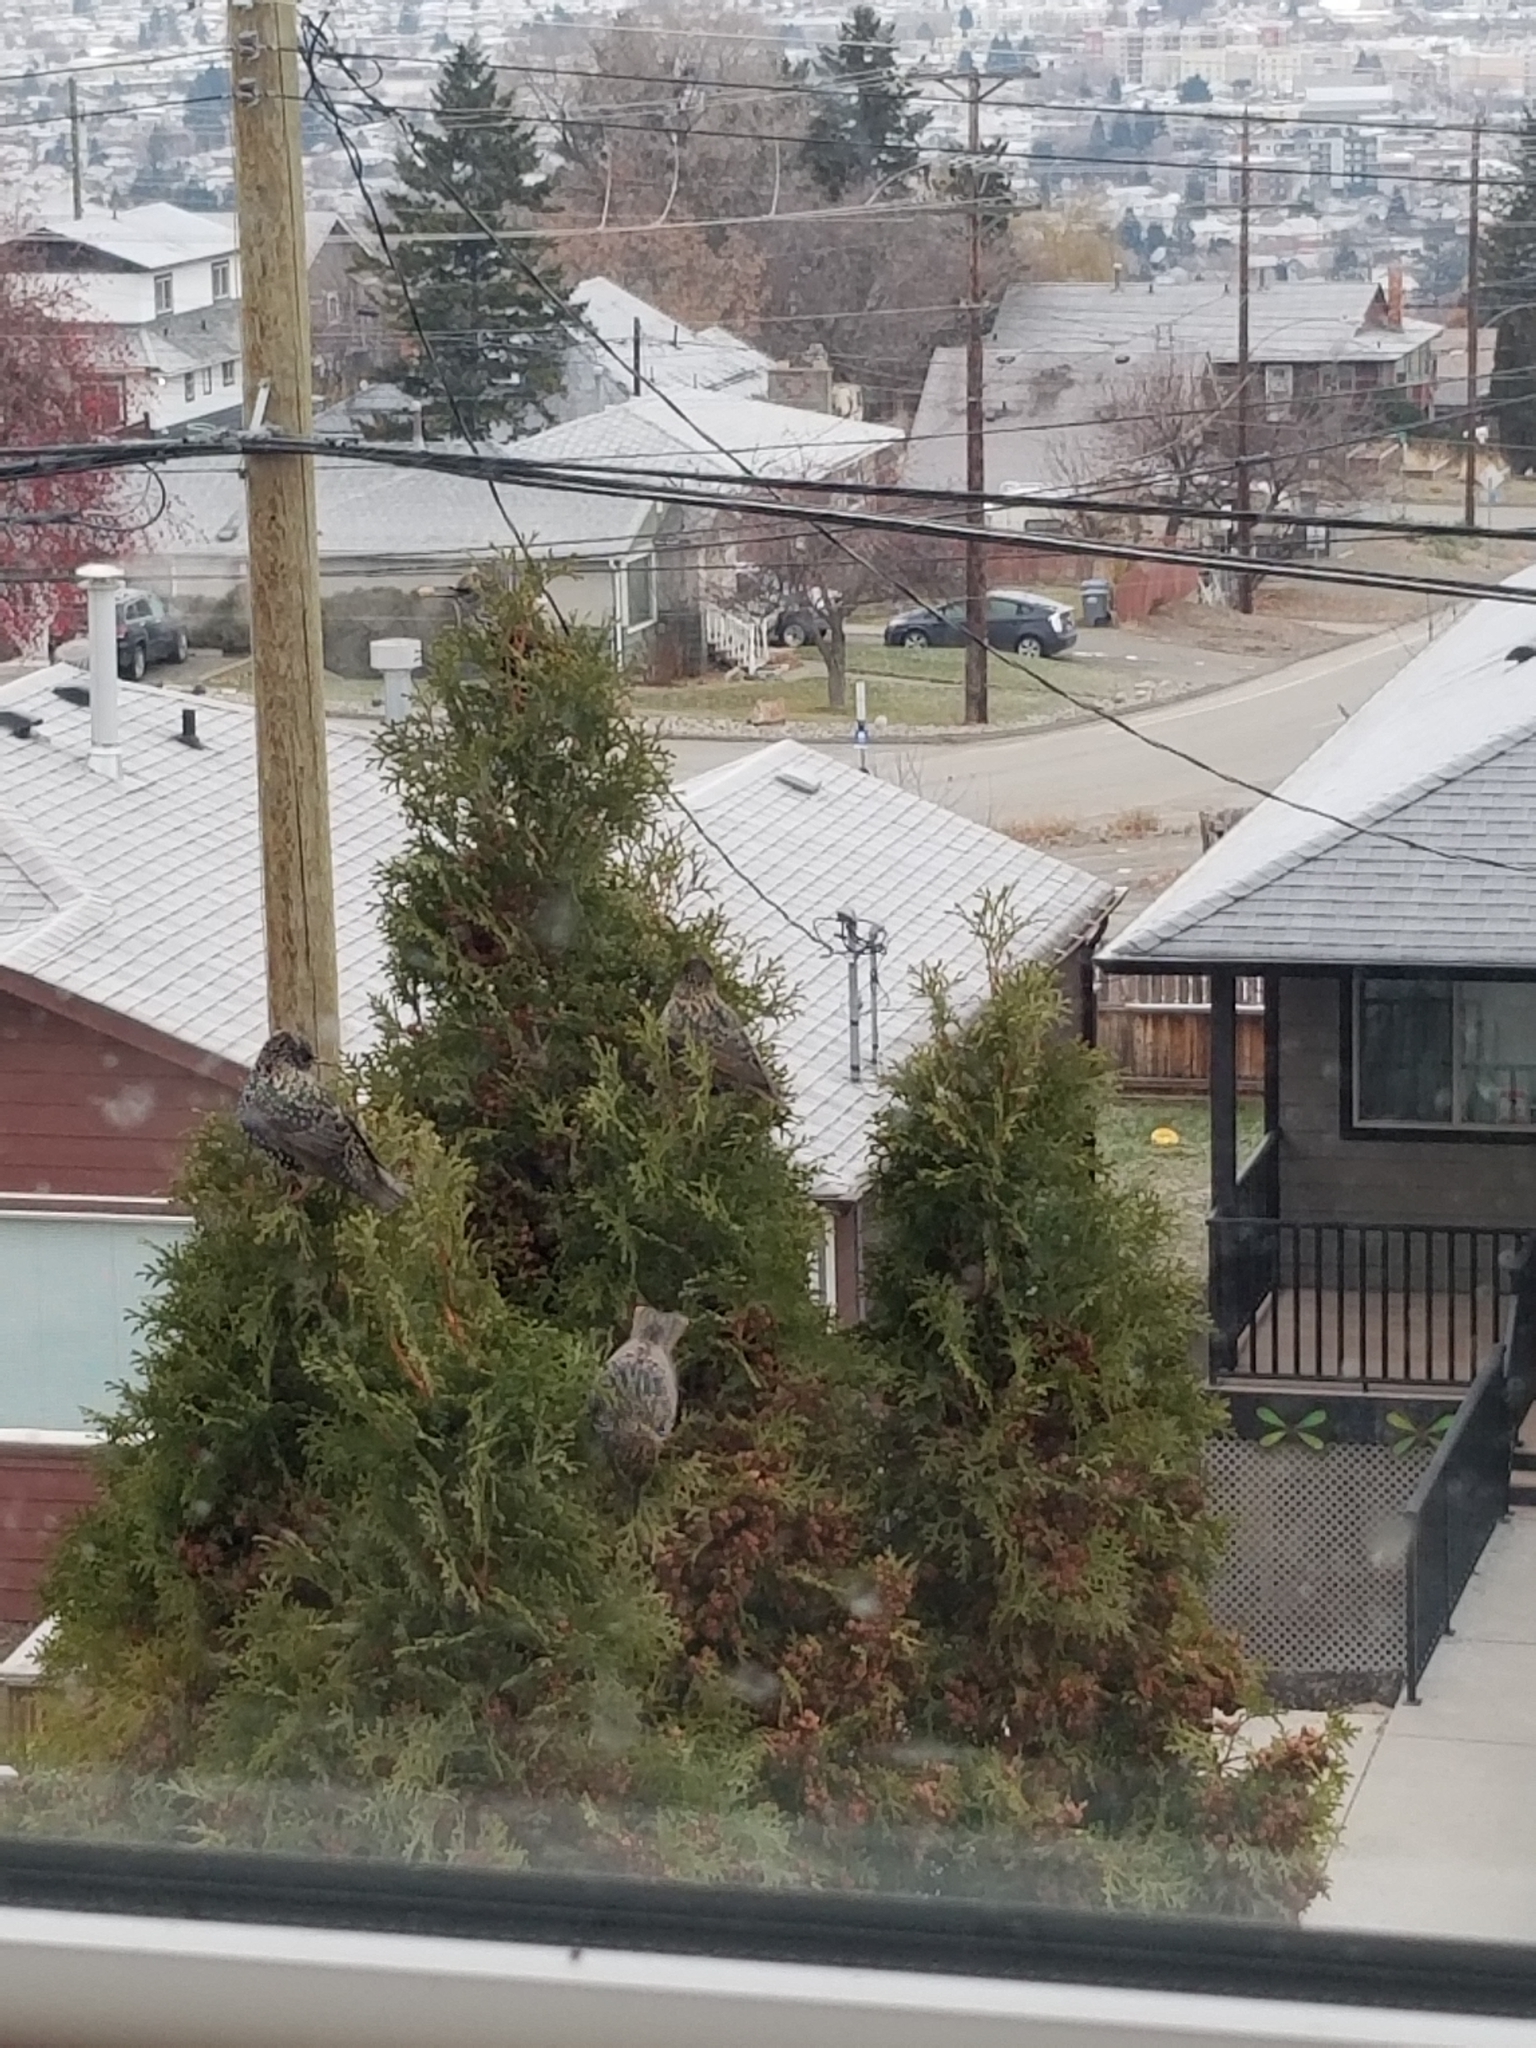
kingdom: Animalia
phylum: Chordata
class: Aves
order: Passeriformes
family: Sturnidae
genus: Sturnus
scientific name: Sturnus vulgaris
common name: Common starling
